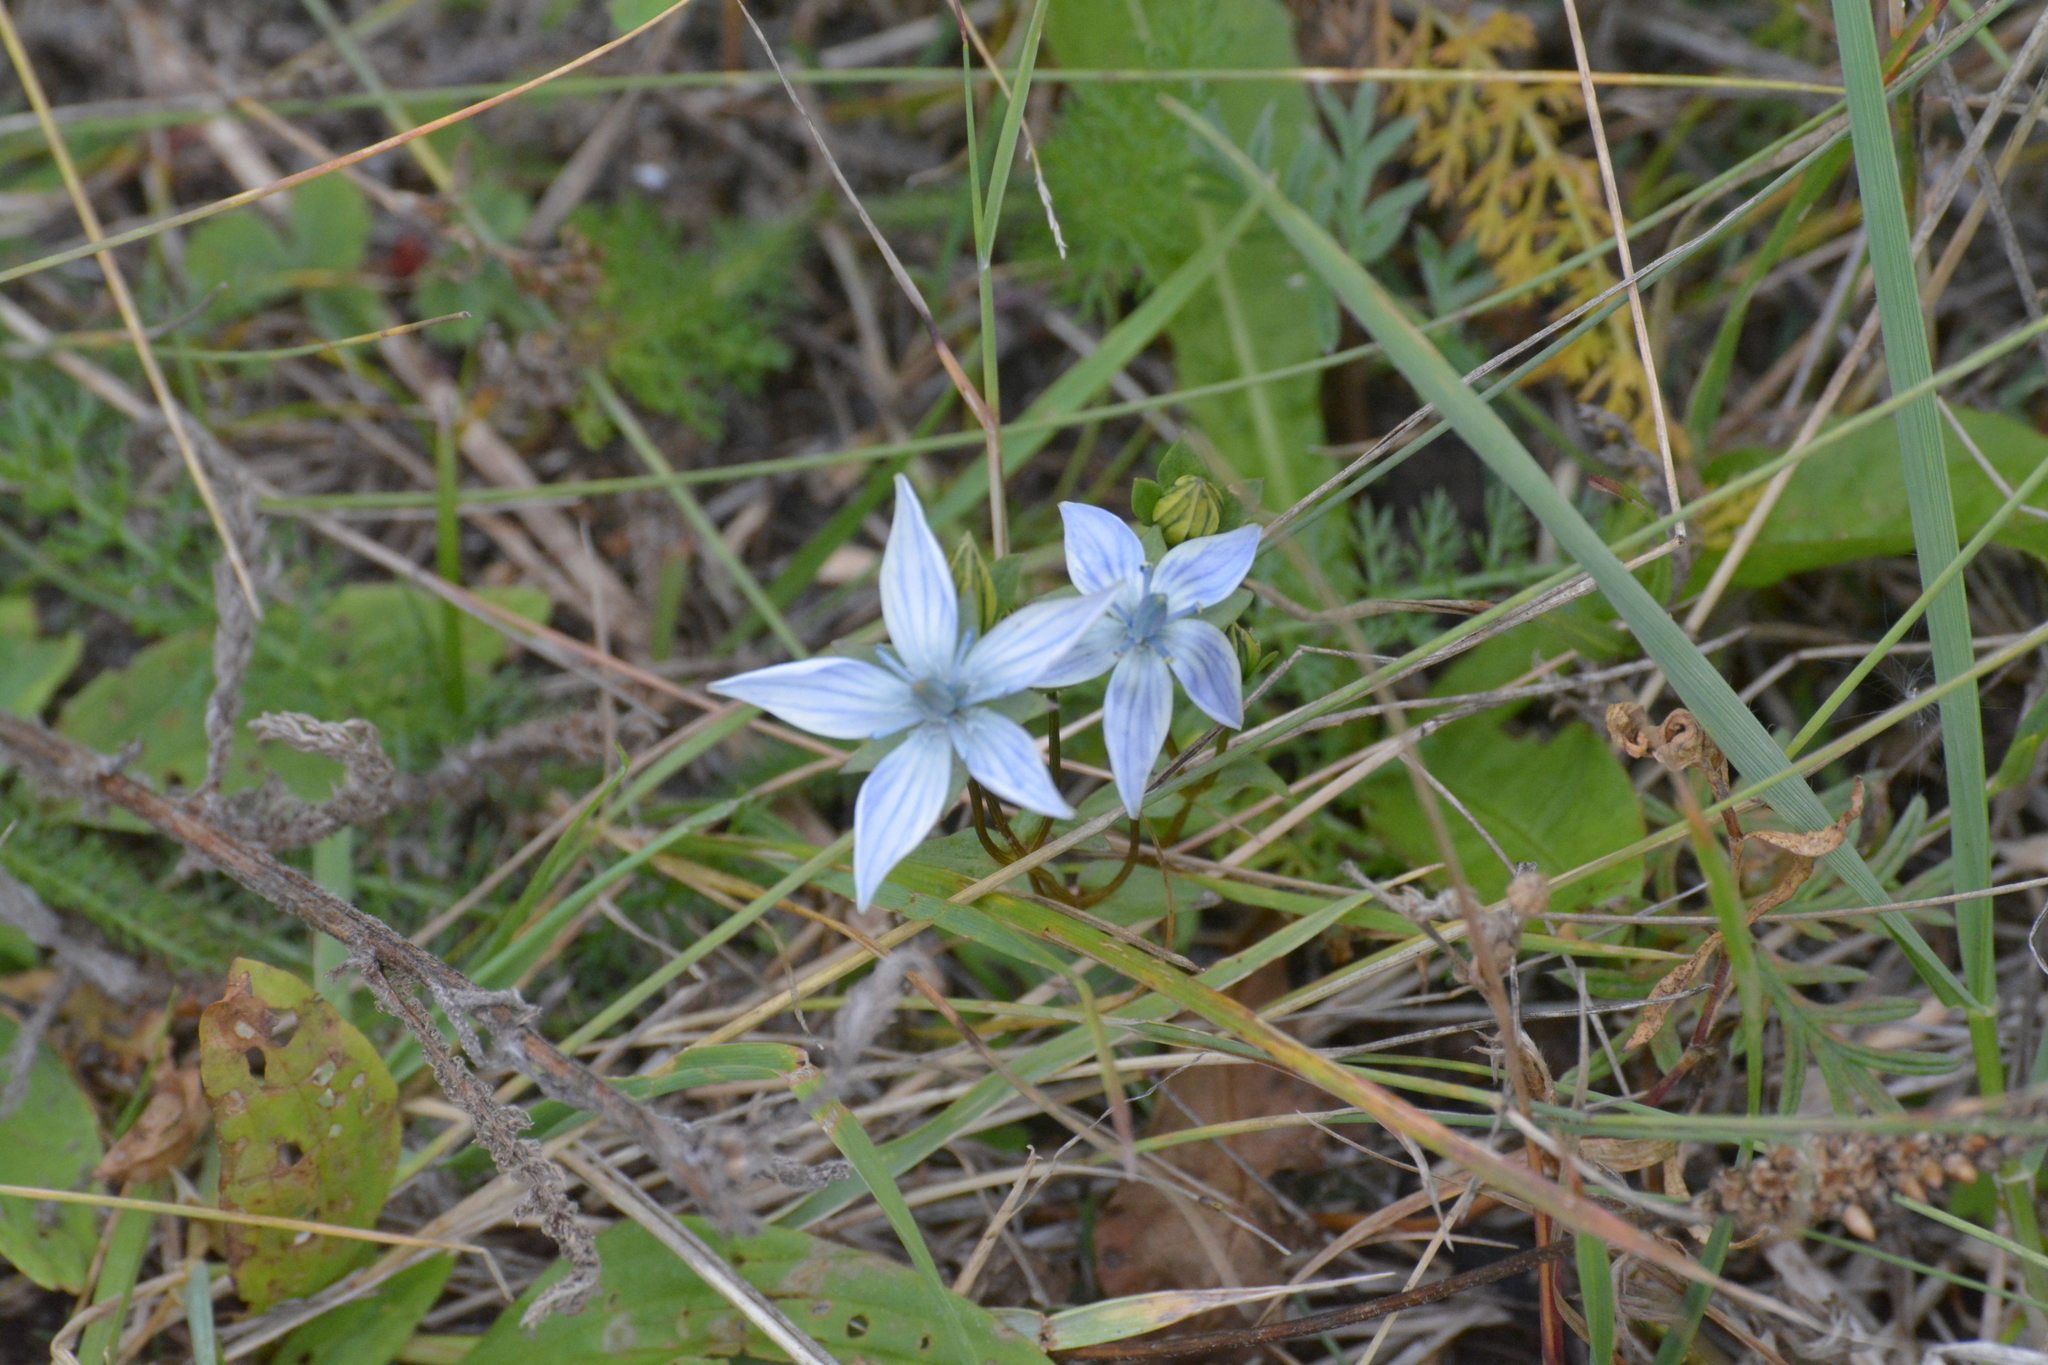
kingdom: Plantae
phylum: Tracheophyta
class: Magnoliopsida
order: Gentianales
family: Gentianaceae
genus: Lomatogonium
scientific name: Lomatogonium rotatum
